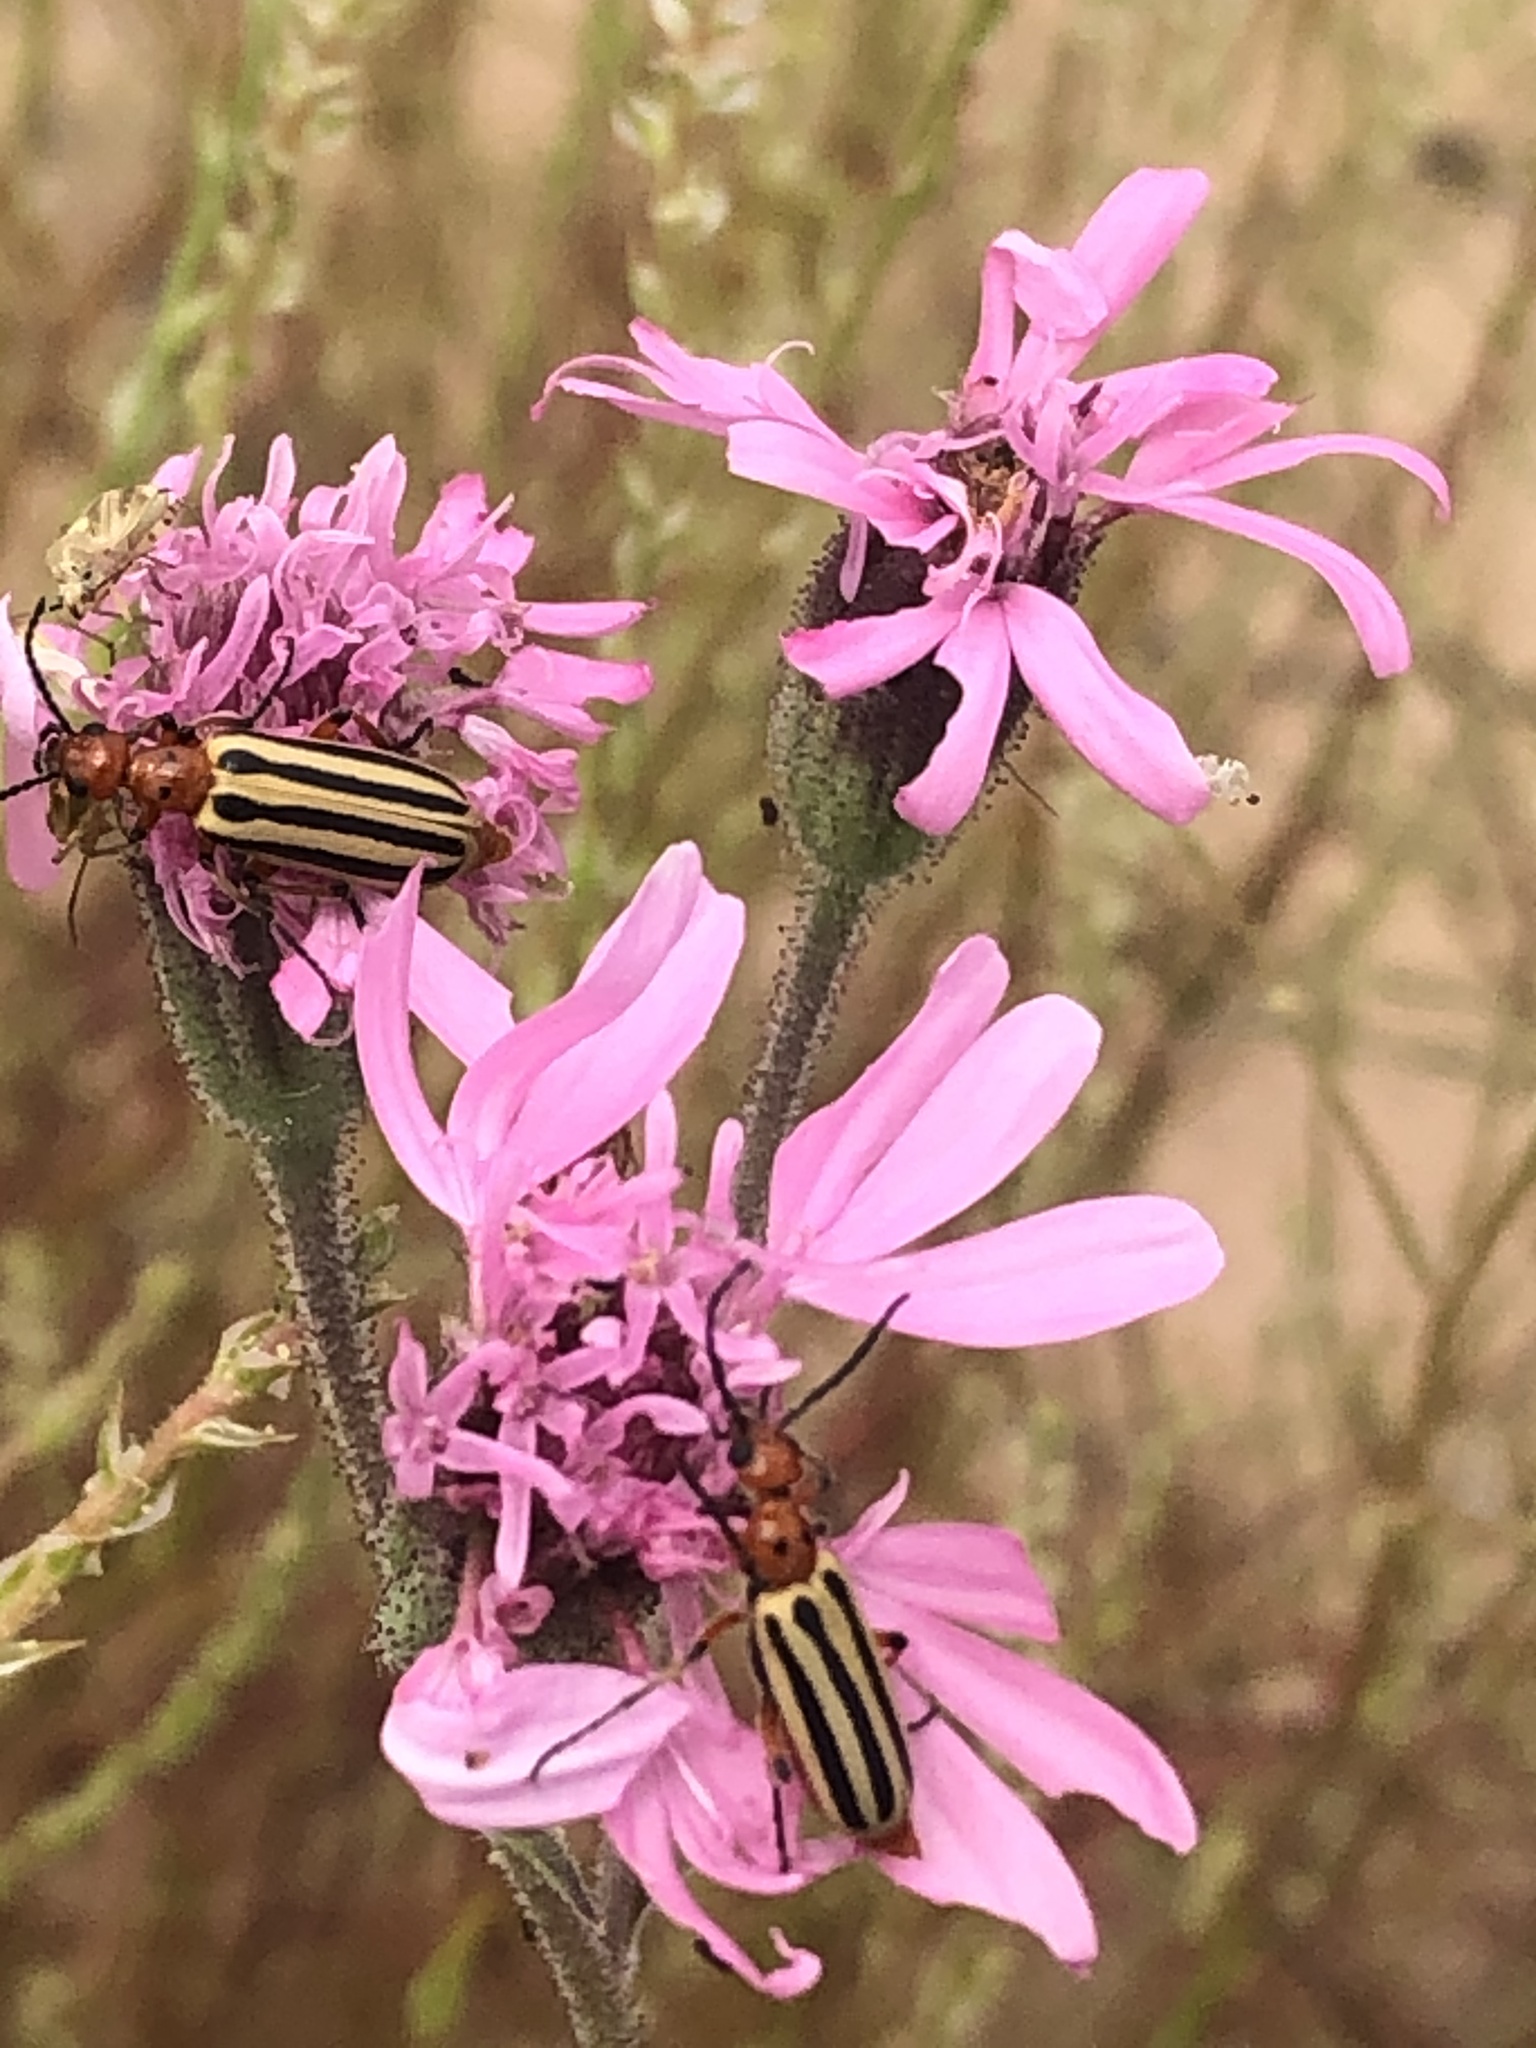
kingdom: Animalia
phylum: Arthropoda
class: Insecta
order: Coleoptera
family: Meloidae
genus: Pyrota
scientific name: Pyrota bilineata
